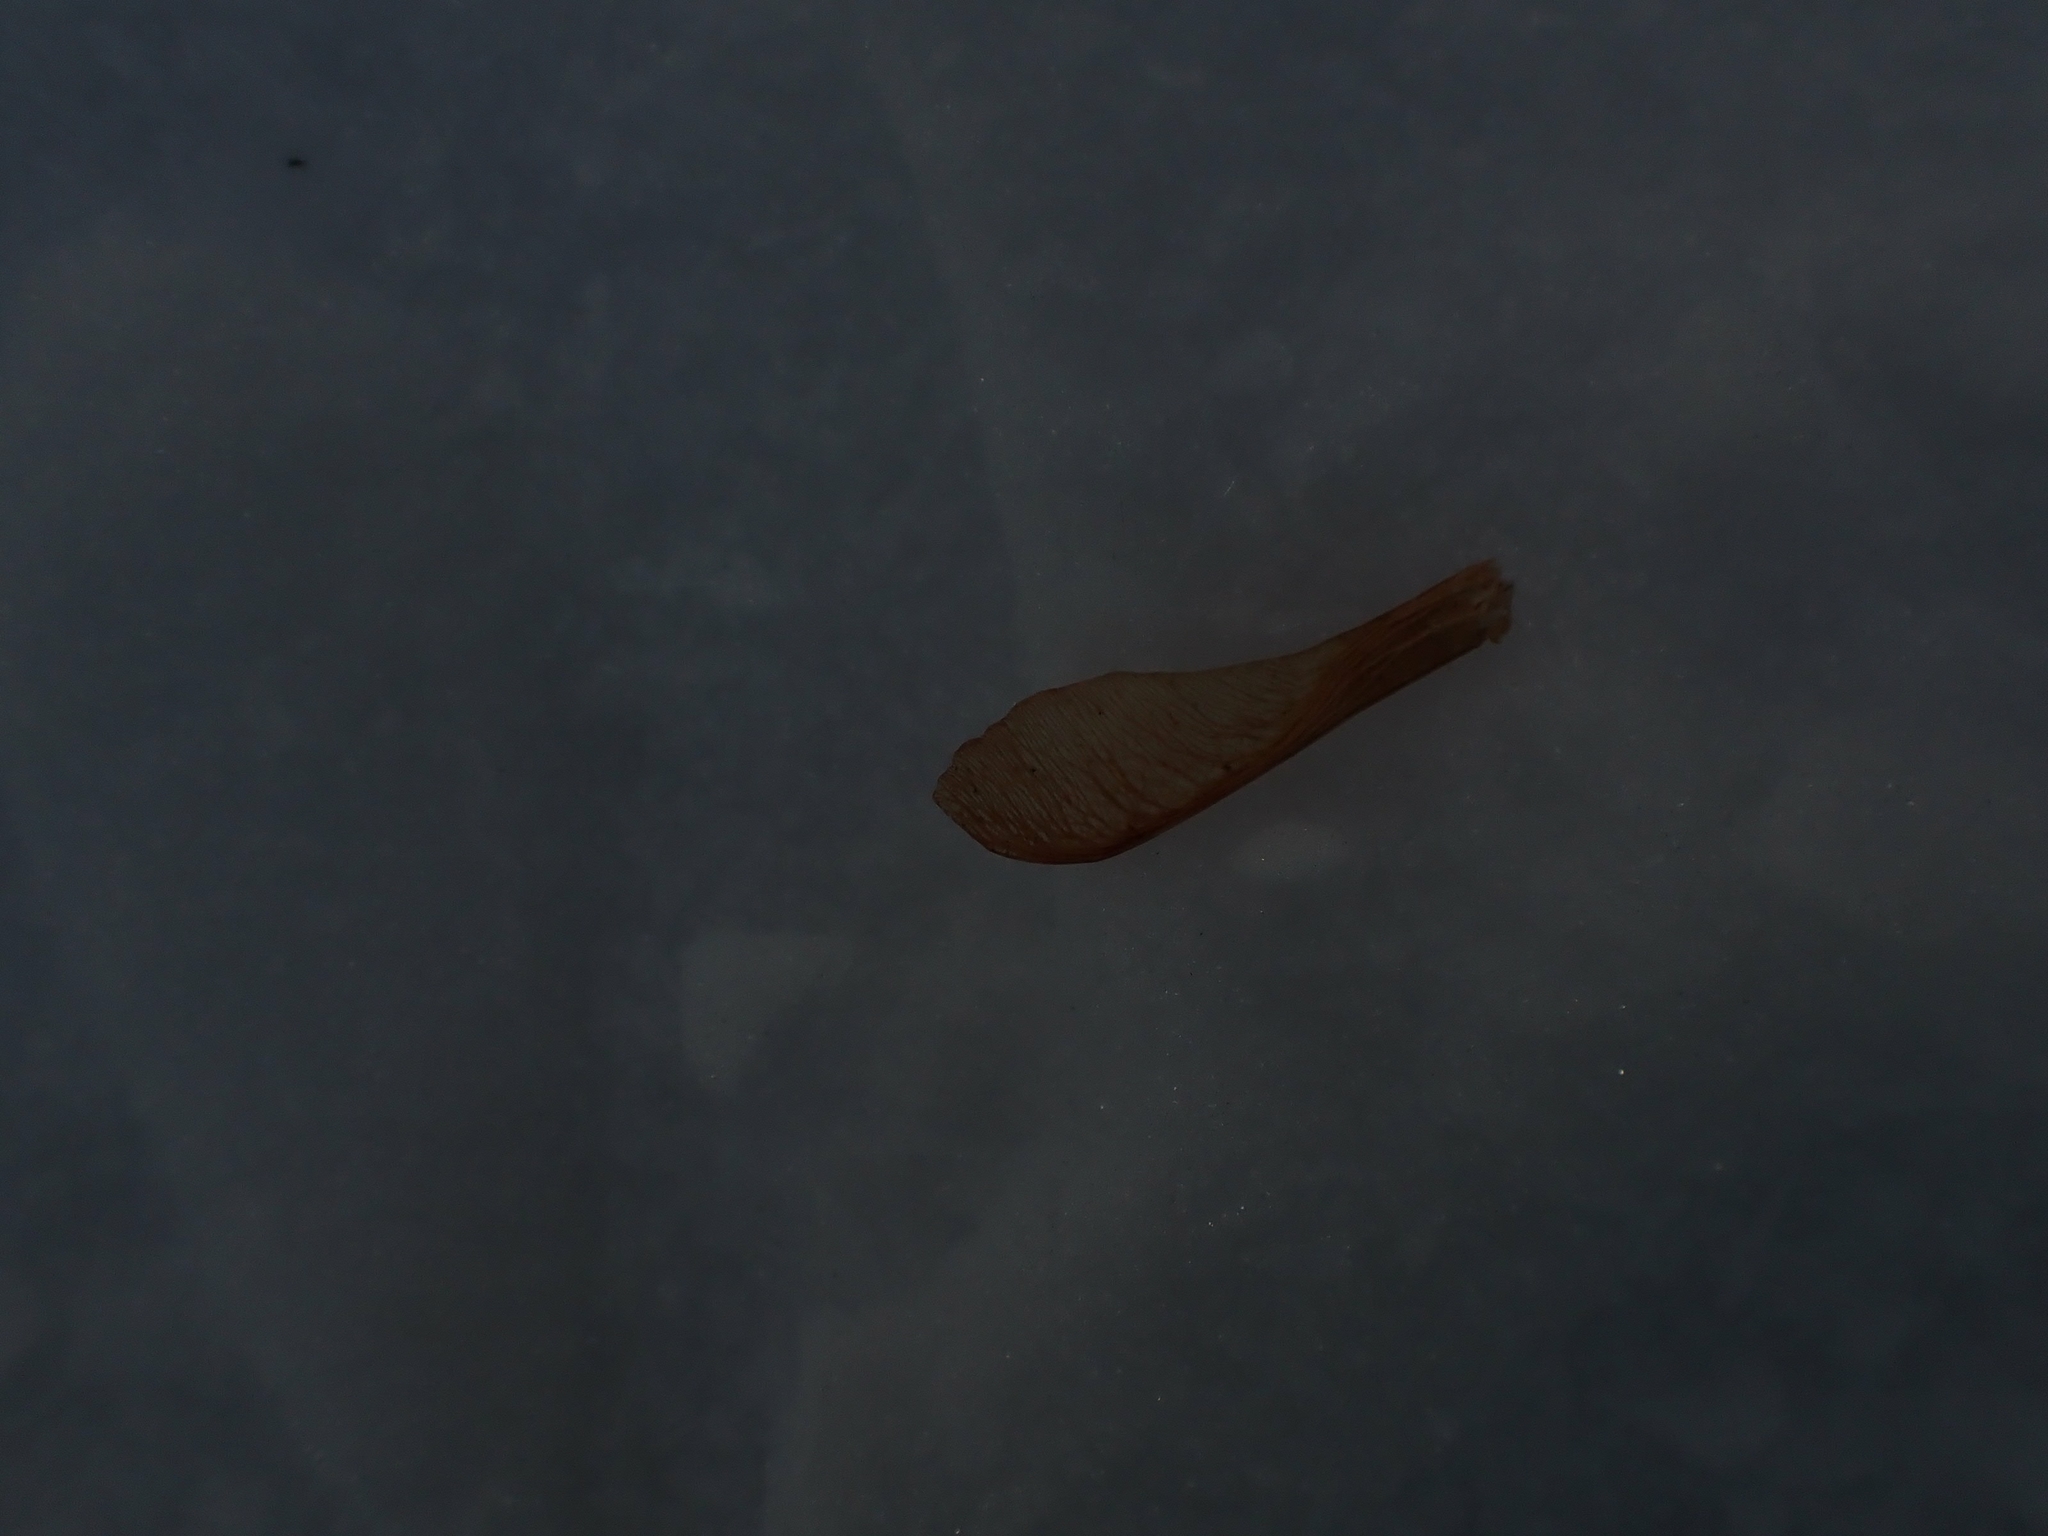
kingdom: Plantae
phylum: Tracheophyta
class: Magnoliopsida
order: Sapindales
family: Sapindaceae
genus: Acer
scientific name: Acer negundo
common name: Ashleaf maple
